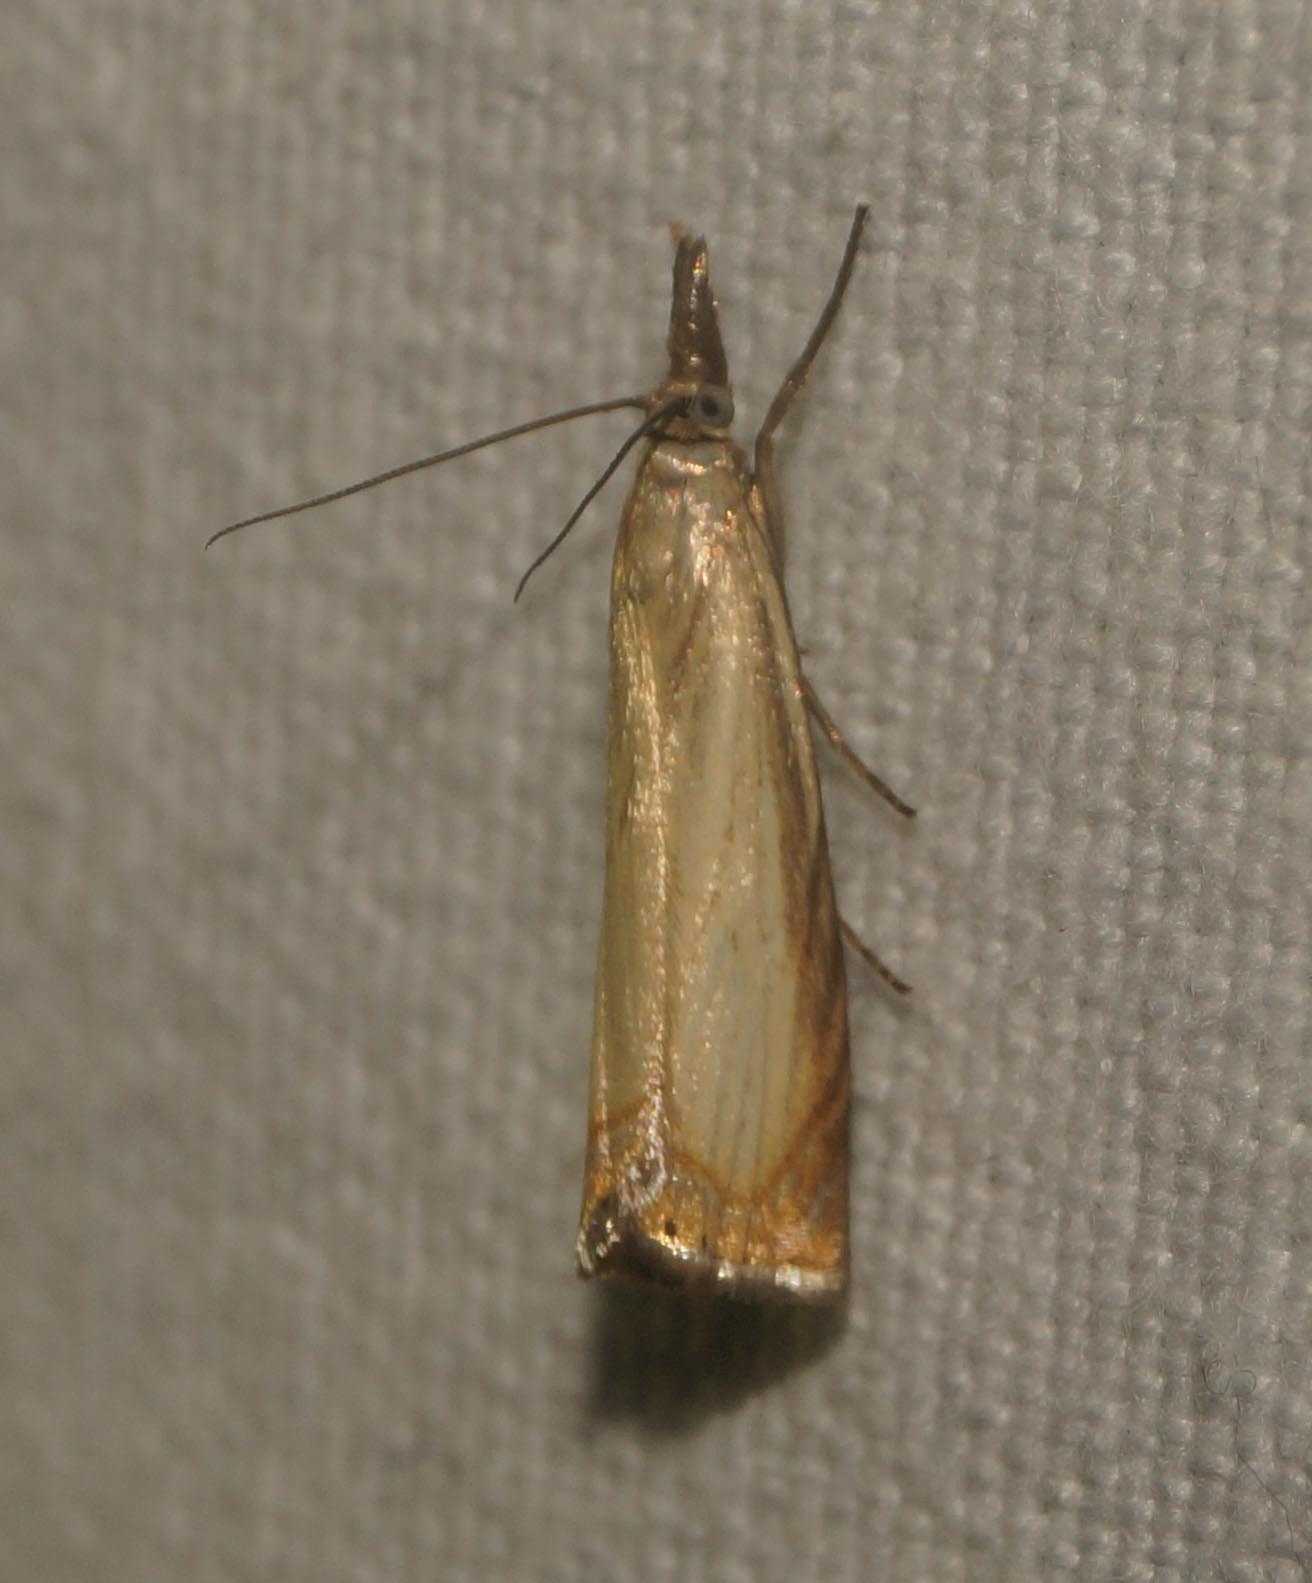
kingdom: Animalia
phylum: Arthropoda
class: Insecta
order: Lepidoptera
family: Crambidae
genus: Chrysoteuchia
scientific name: Chrysoteuchia culmella
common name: Garden grass-veneer
